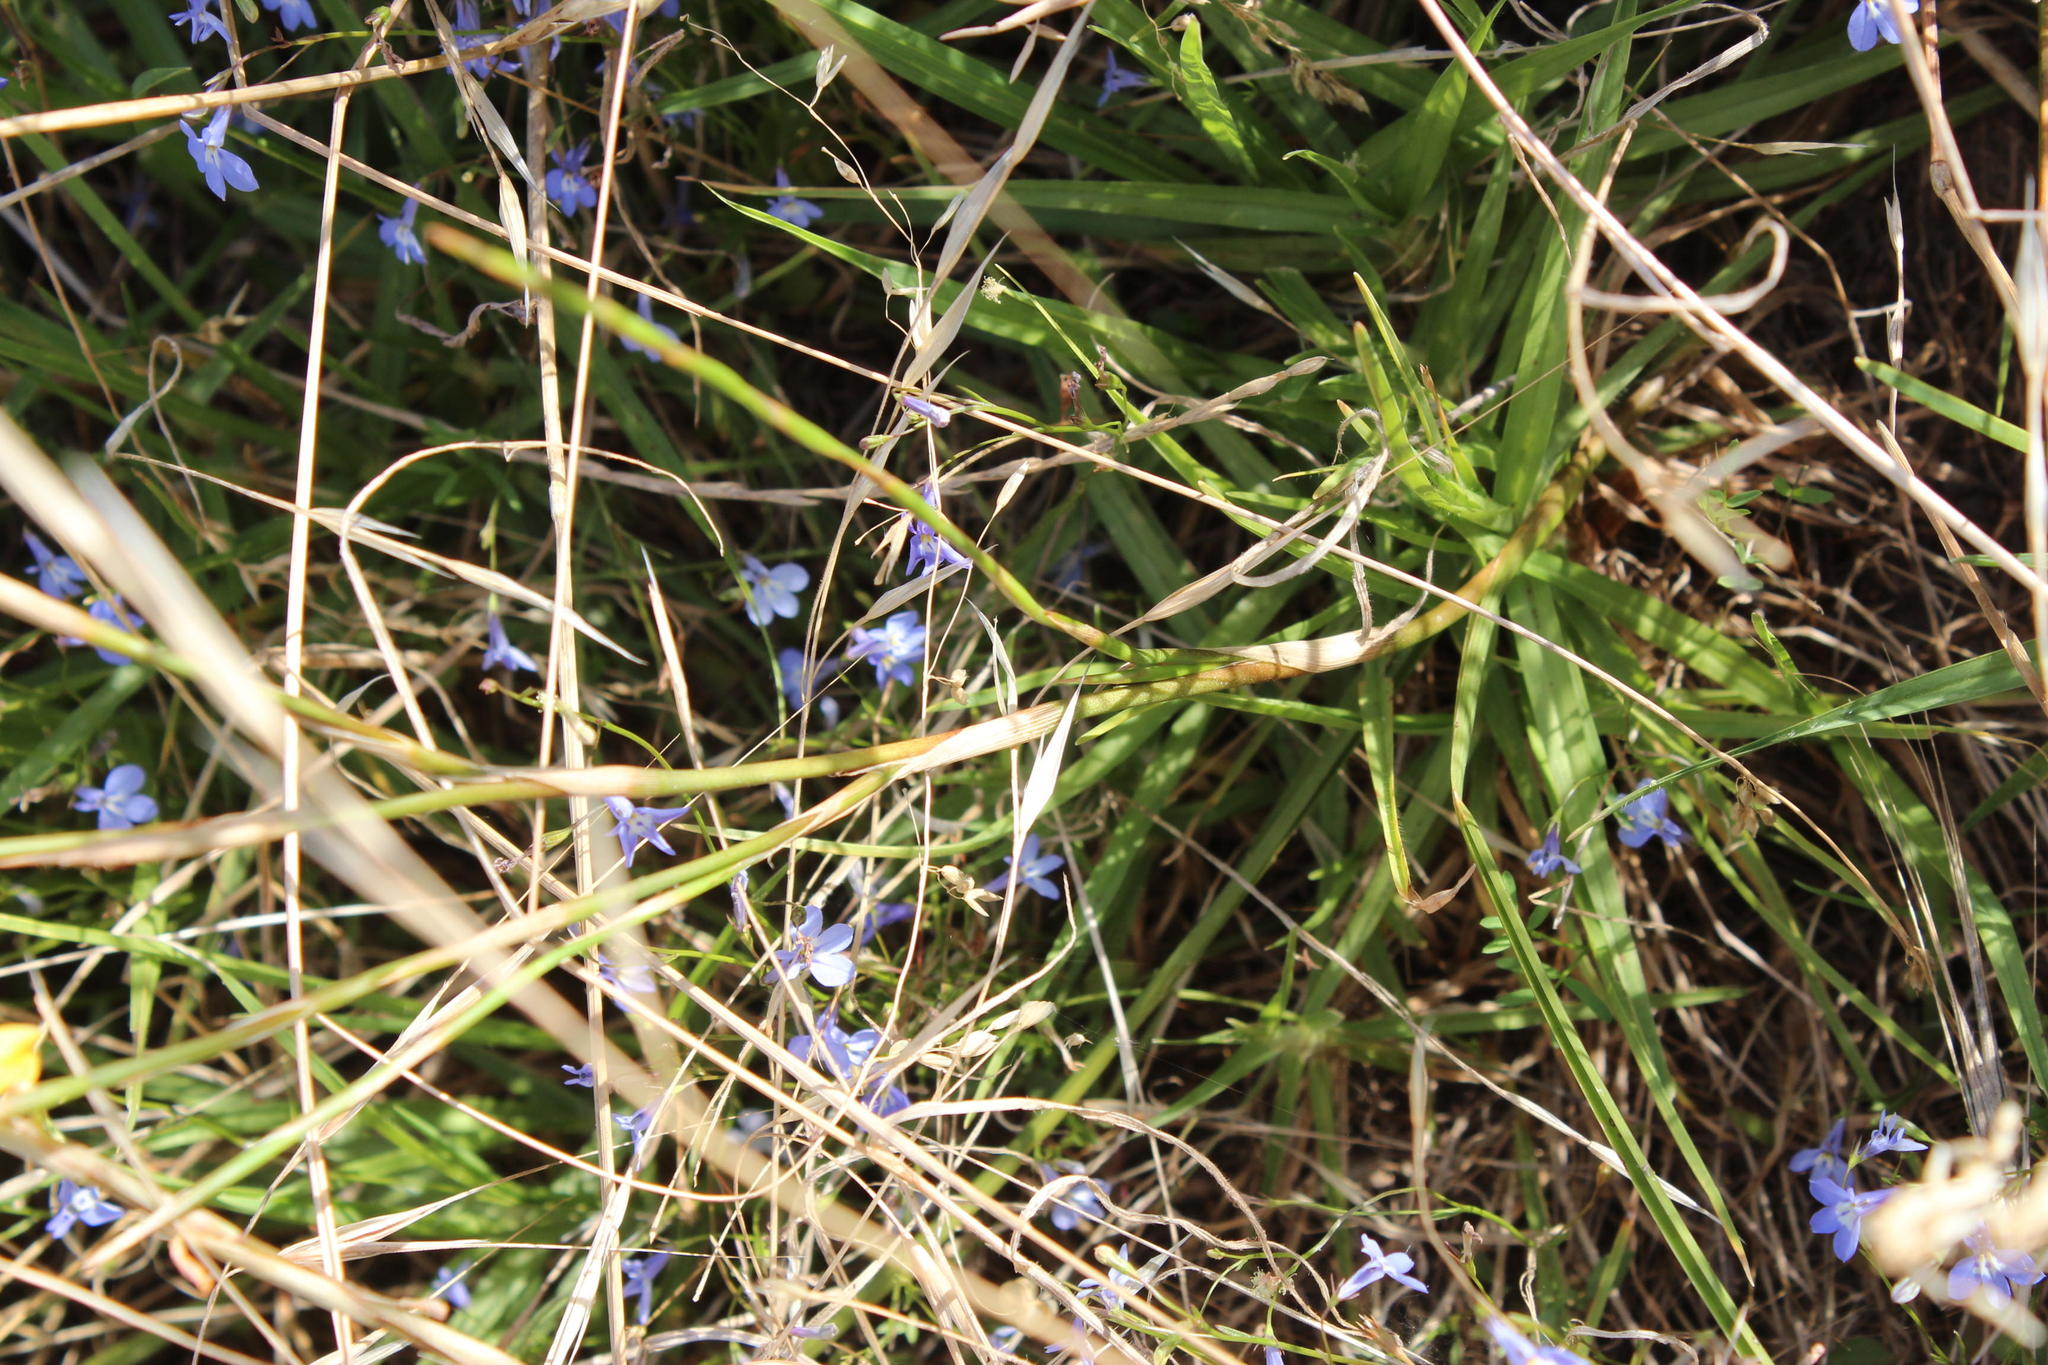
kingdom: Plantae
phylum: Tracheophyta
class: Liliopsida
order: Asparagales
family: Iridaceae
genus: Moraea
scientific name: Moraea lewisiae
